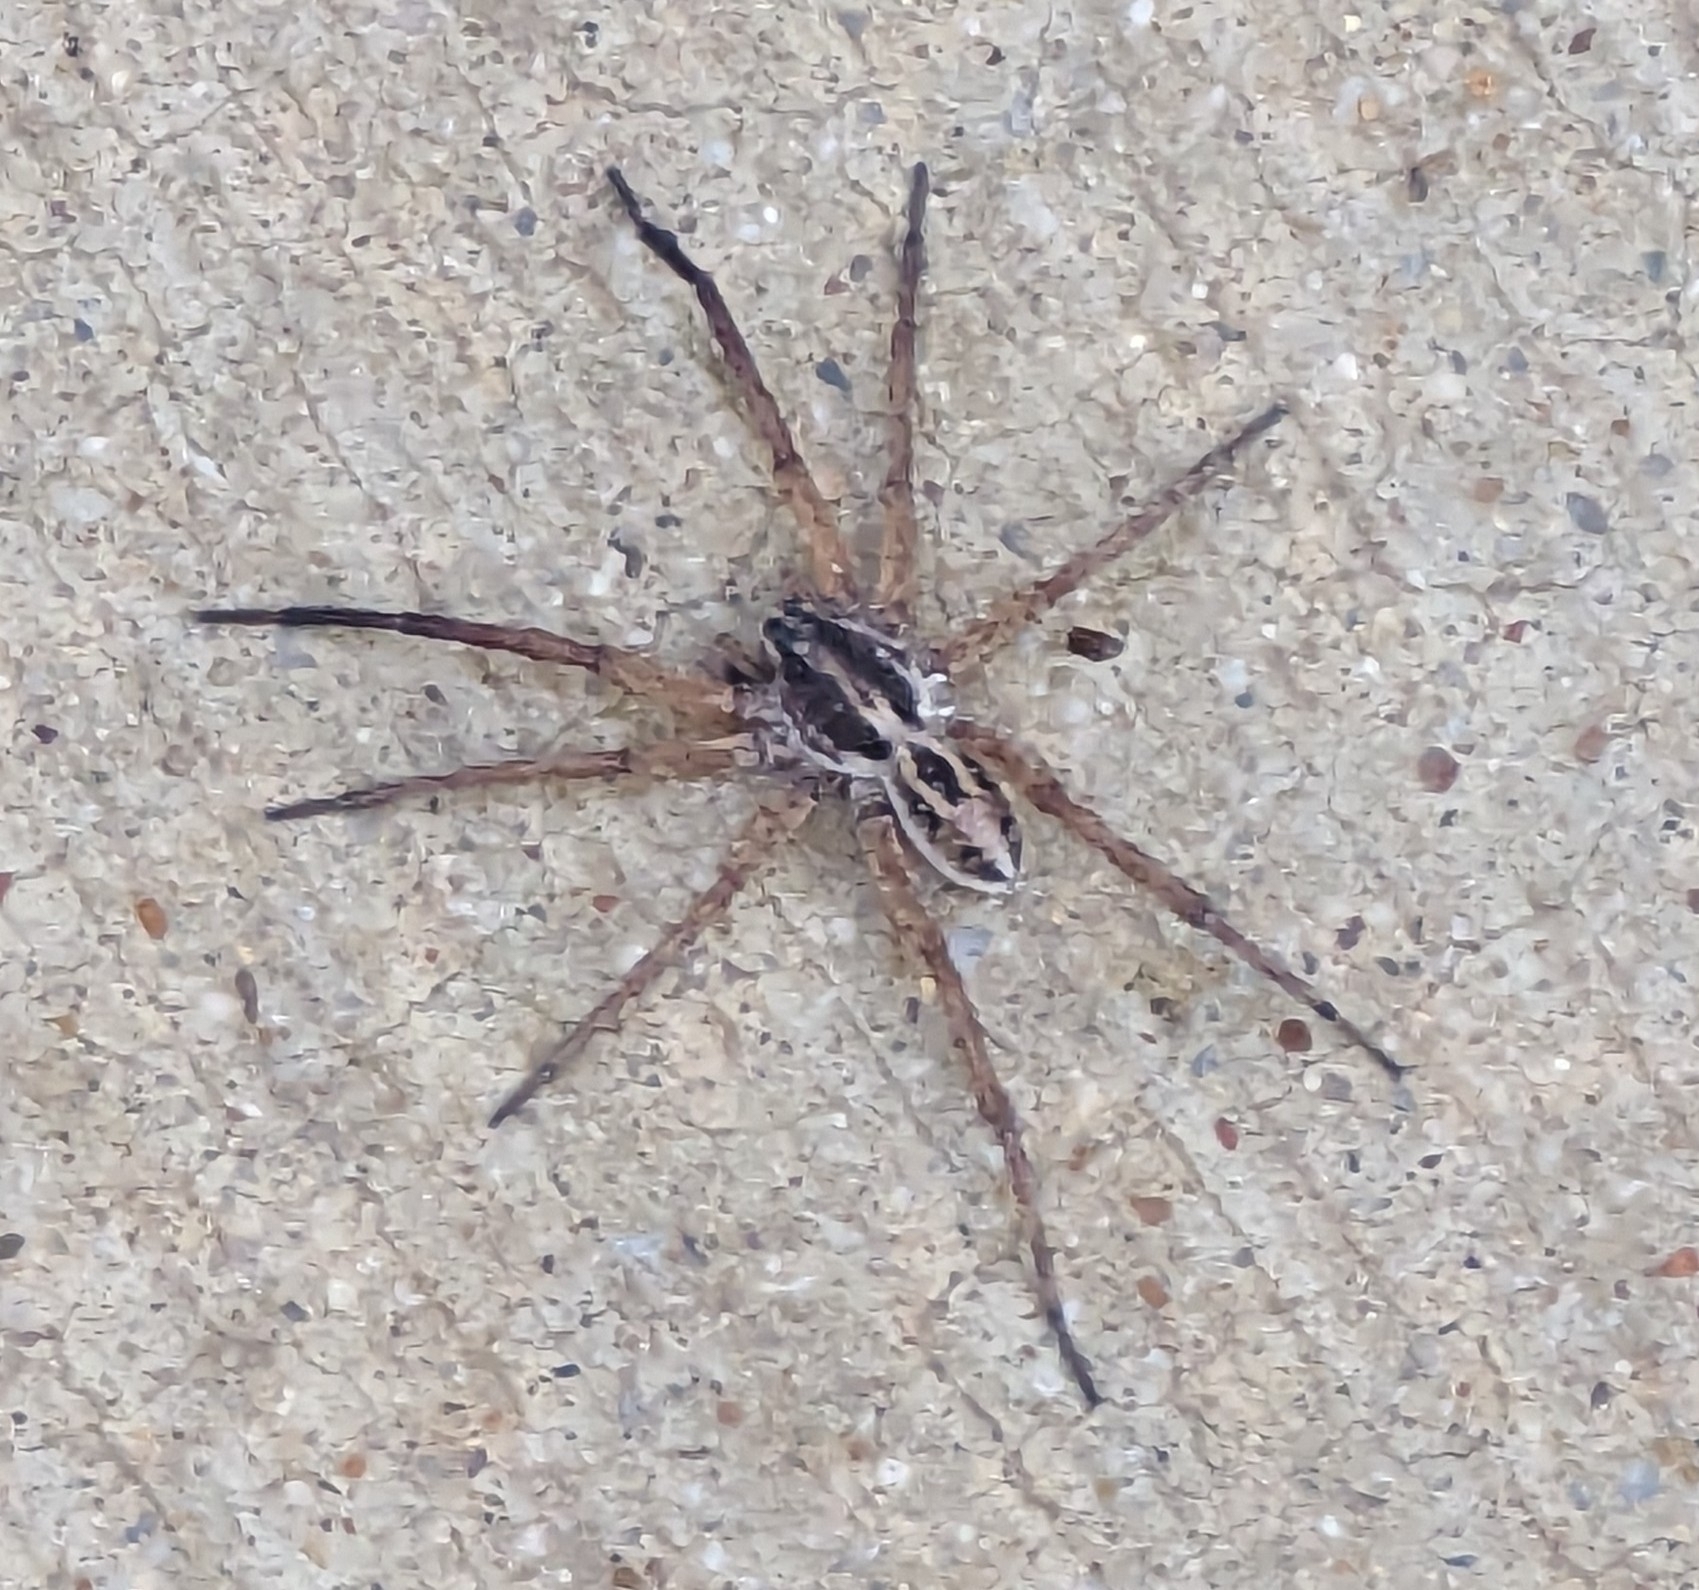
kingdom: Animalia
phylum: Arthropoda
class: Arachnida
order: Araneae
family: Lycosidae
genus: Schizocosa
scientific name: Schizocosa avida
